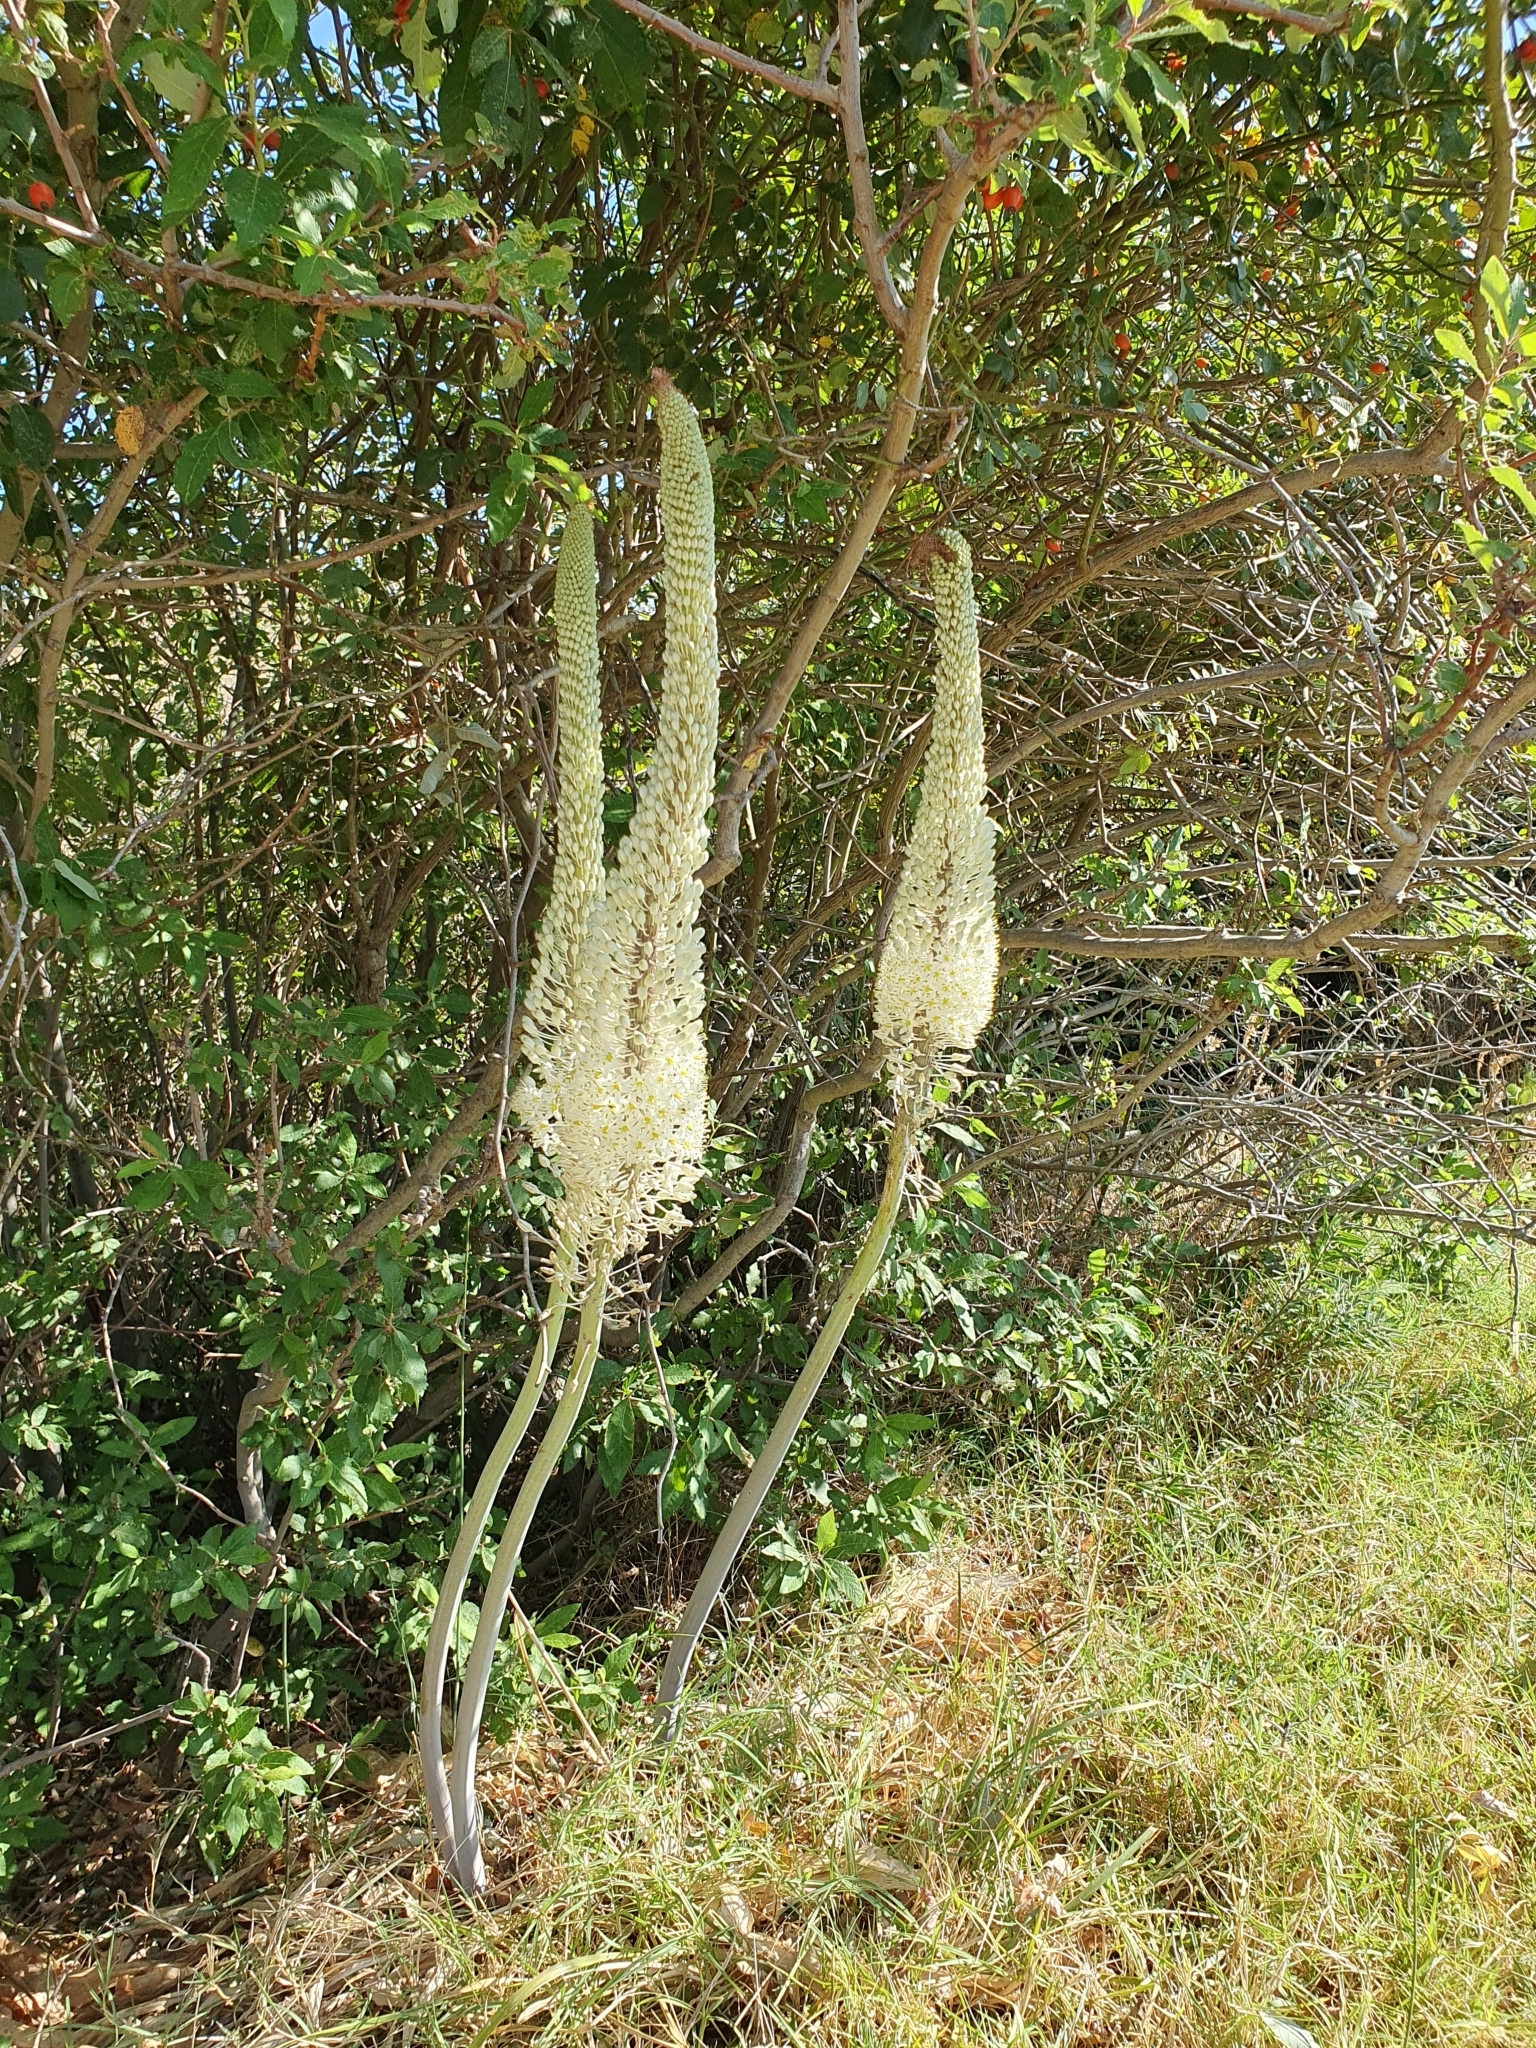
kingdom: Plantae
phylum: Tracheophyta
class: Liliopsida
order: Asparagales
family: Asparagaceae
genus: Drimia
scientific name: Drimia numidica
